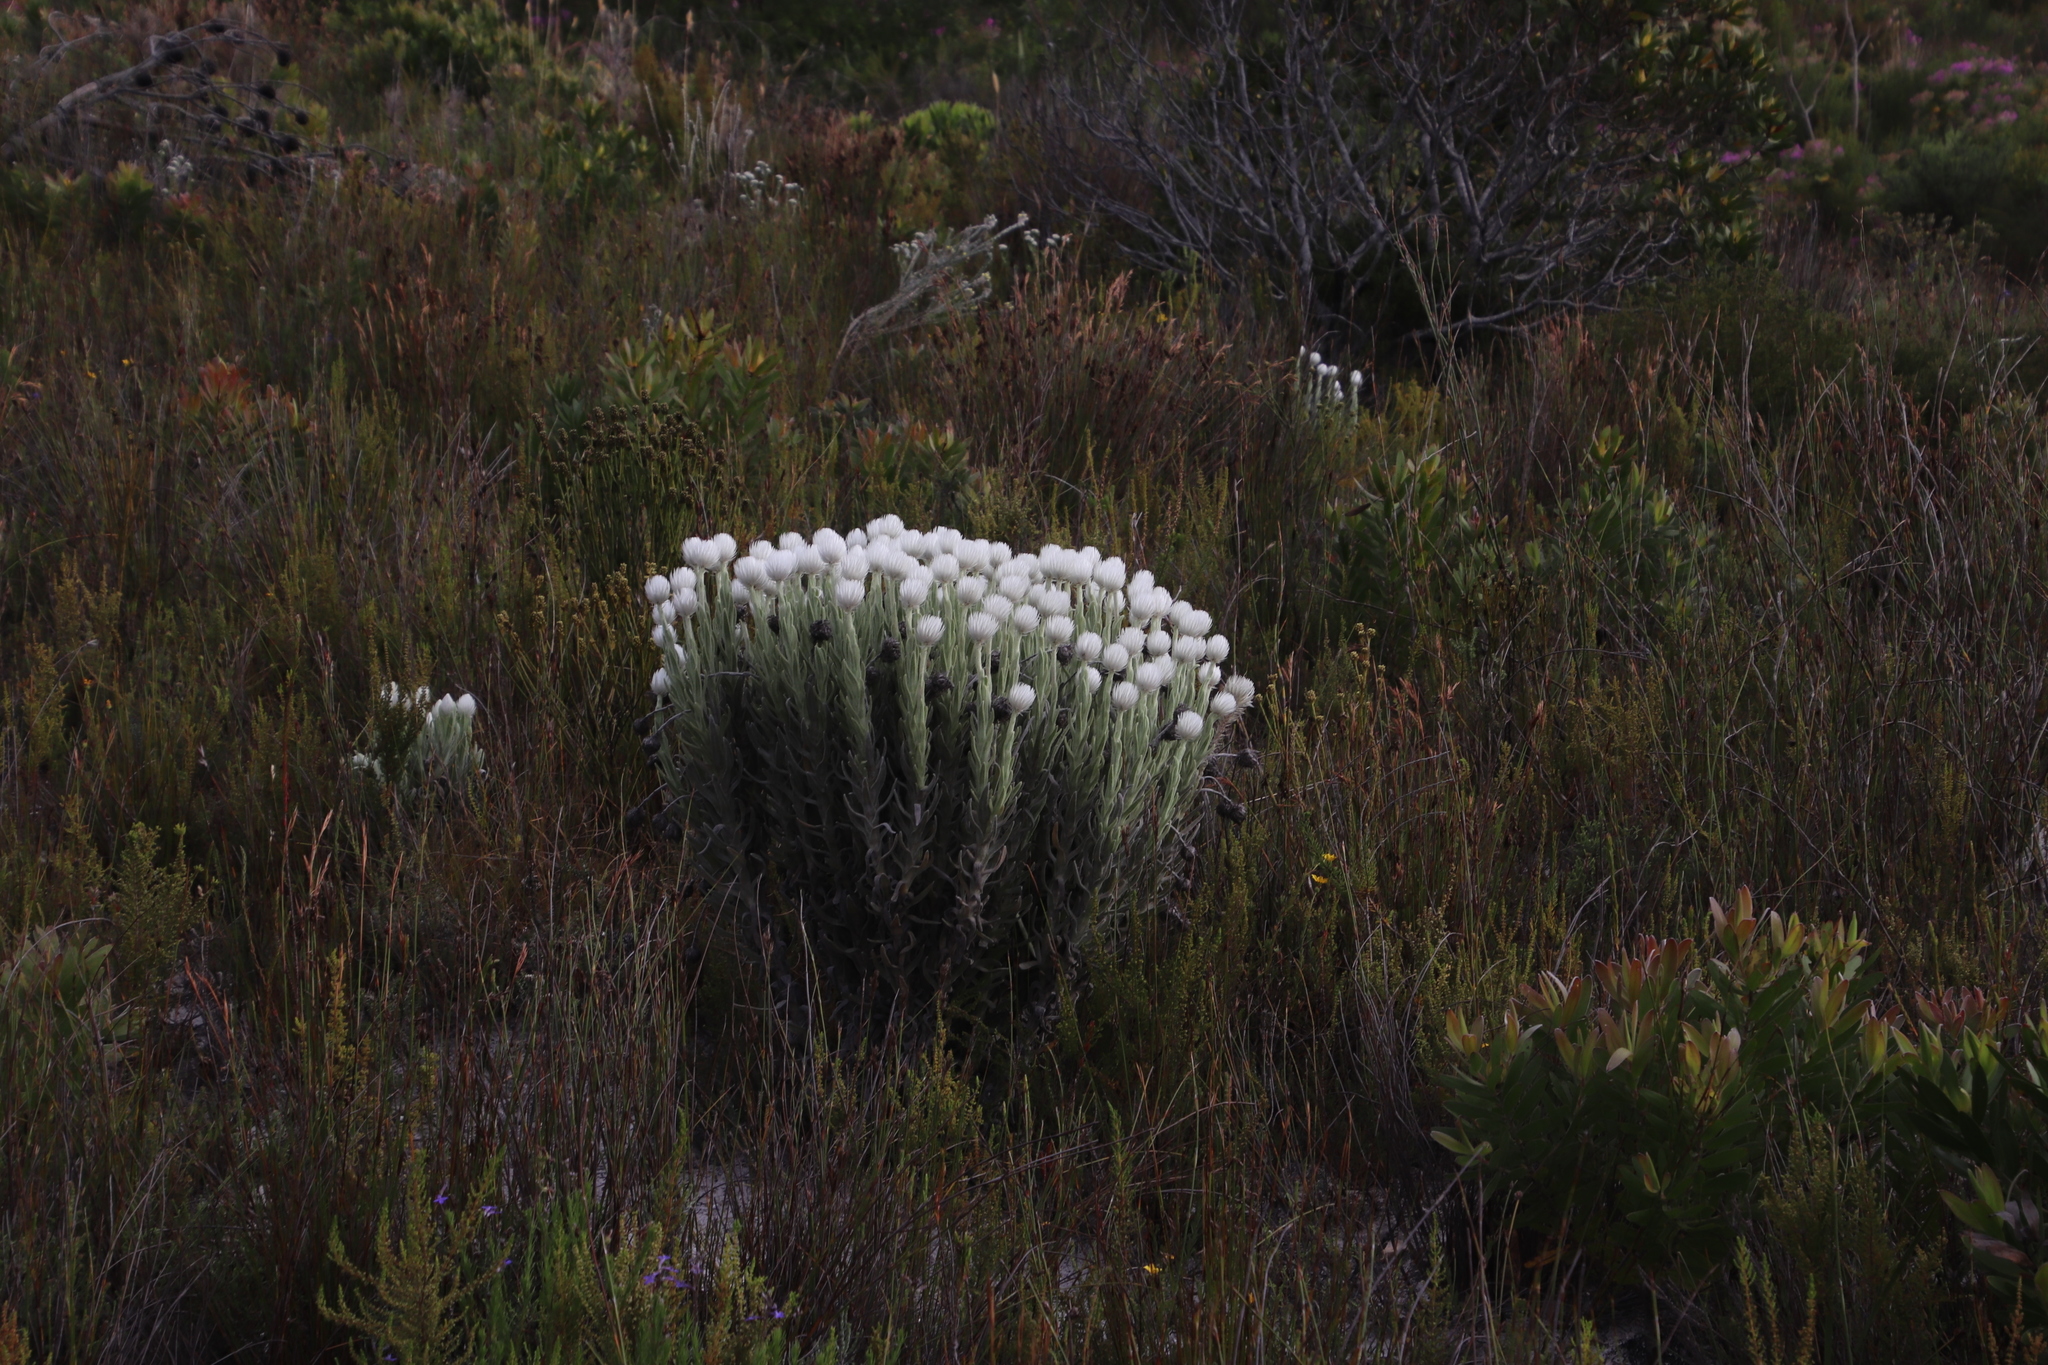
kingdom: Plantae
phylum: Tracheophyta
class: Magnoliopsida
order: Asterales
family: Asteraceae
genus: Syncarpha
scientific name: Syncarpha vestita
